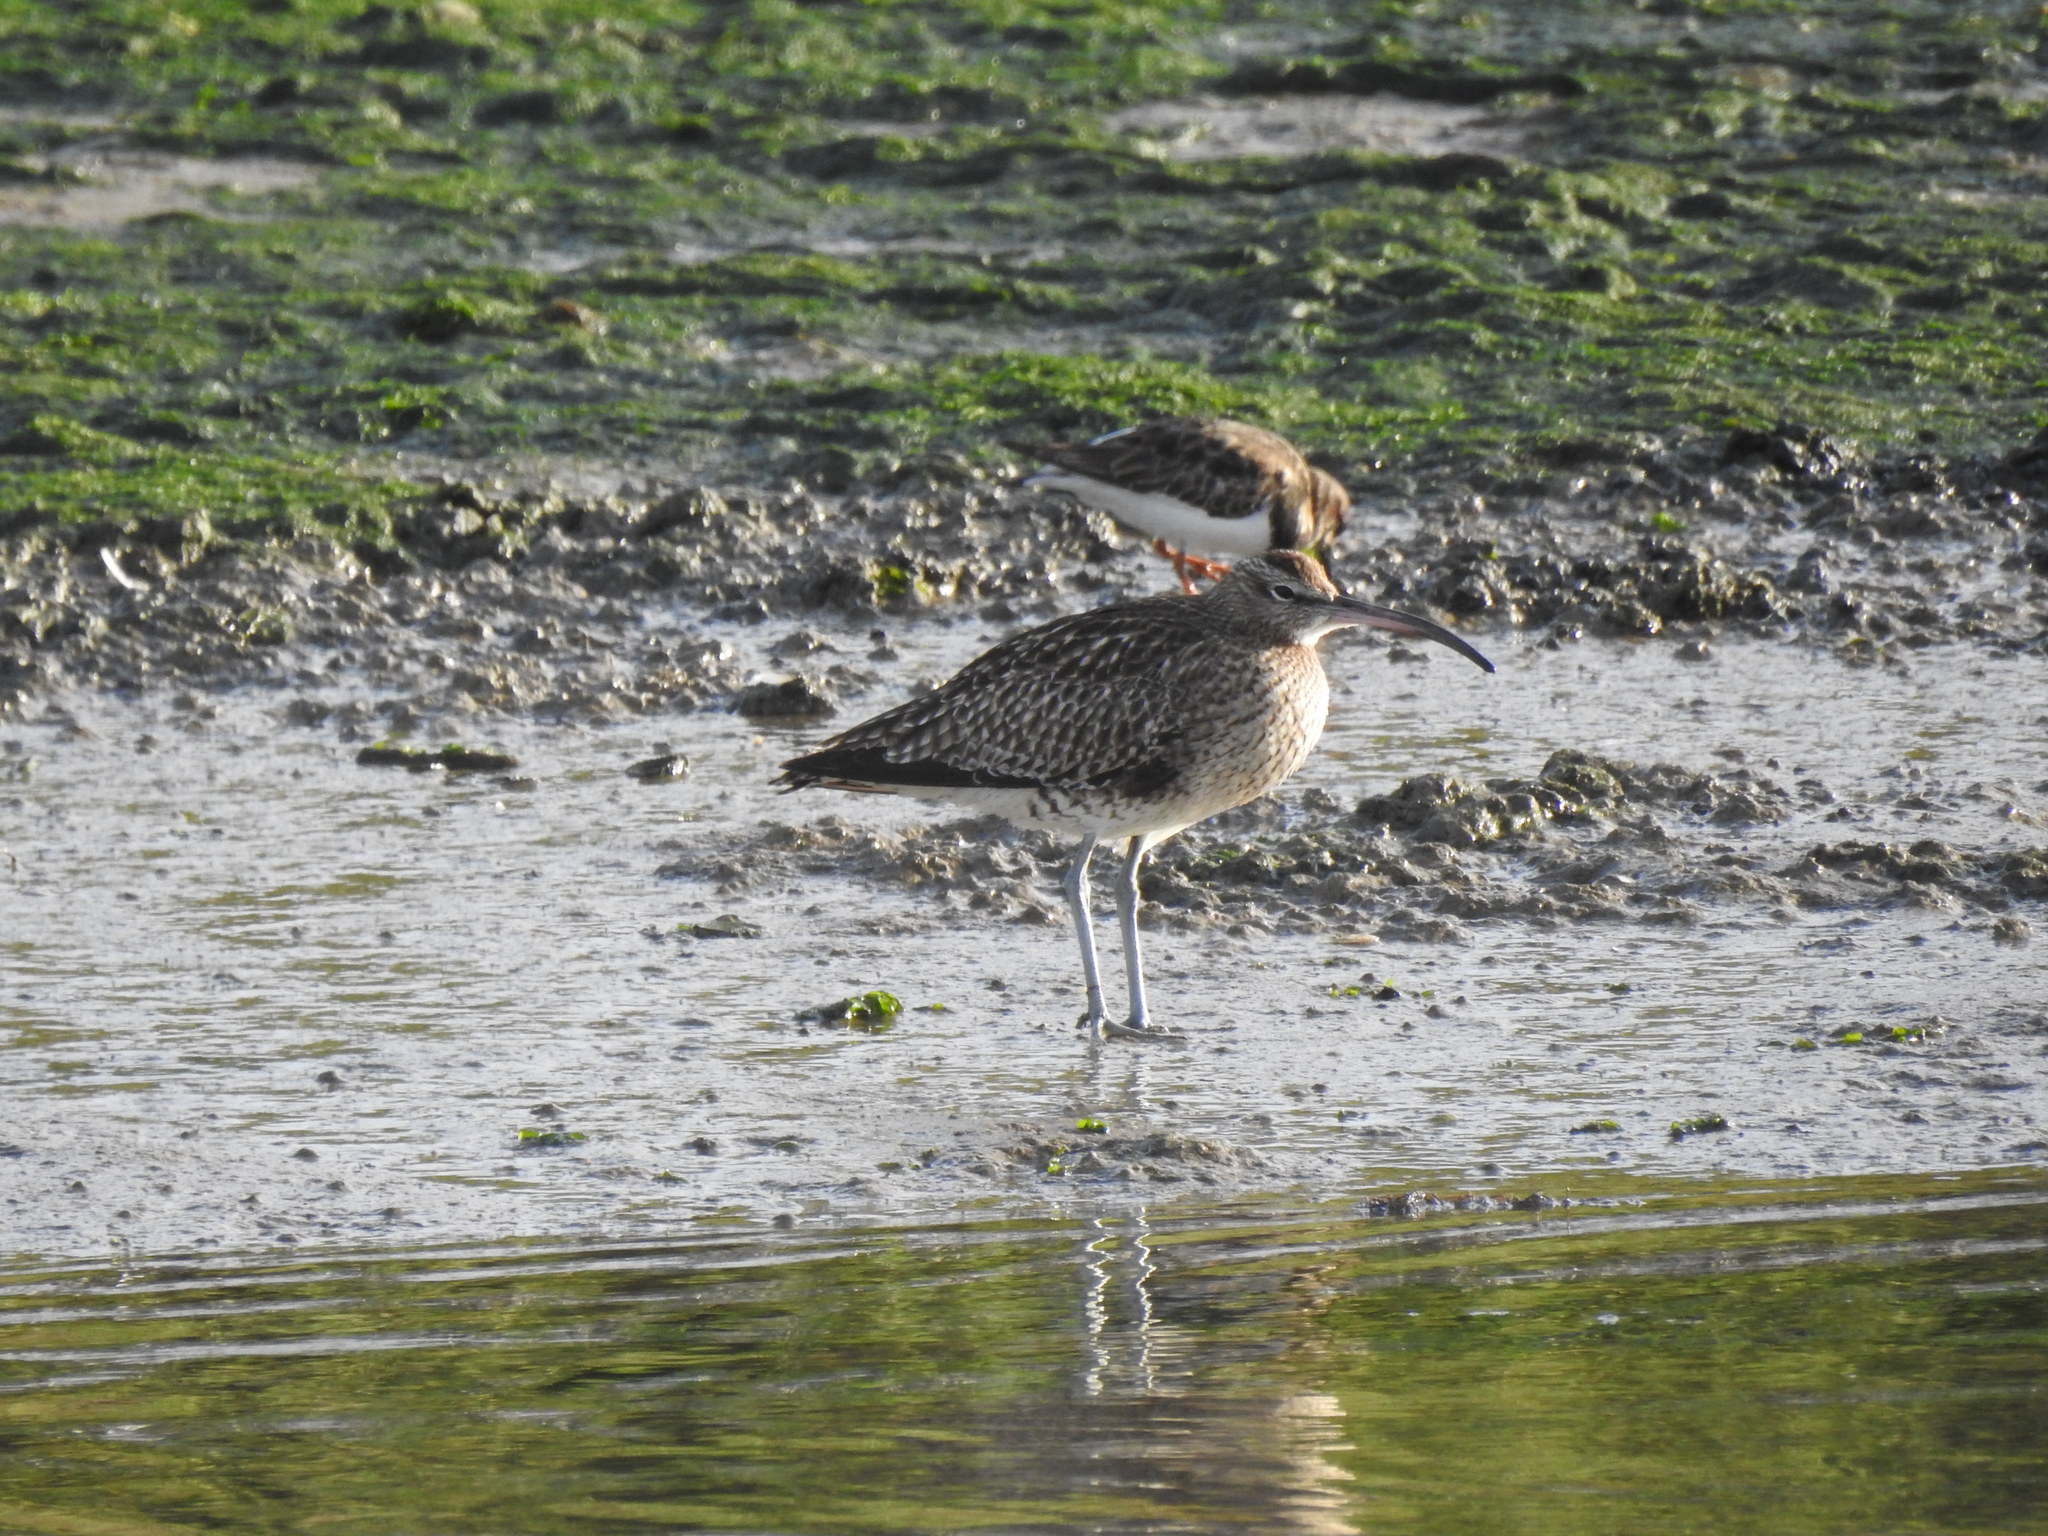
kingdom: Animalia
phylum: Chordata
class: Aves
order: Charadriiformes
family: Scolopacidae
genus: Numenius
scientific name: Numenius phaeopus
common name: Whimbrel
